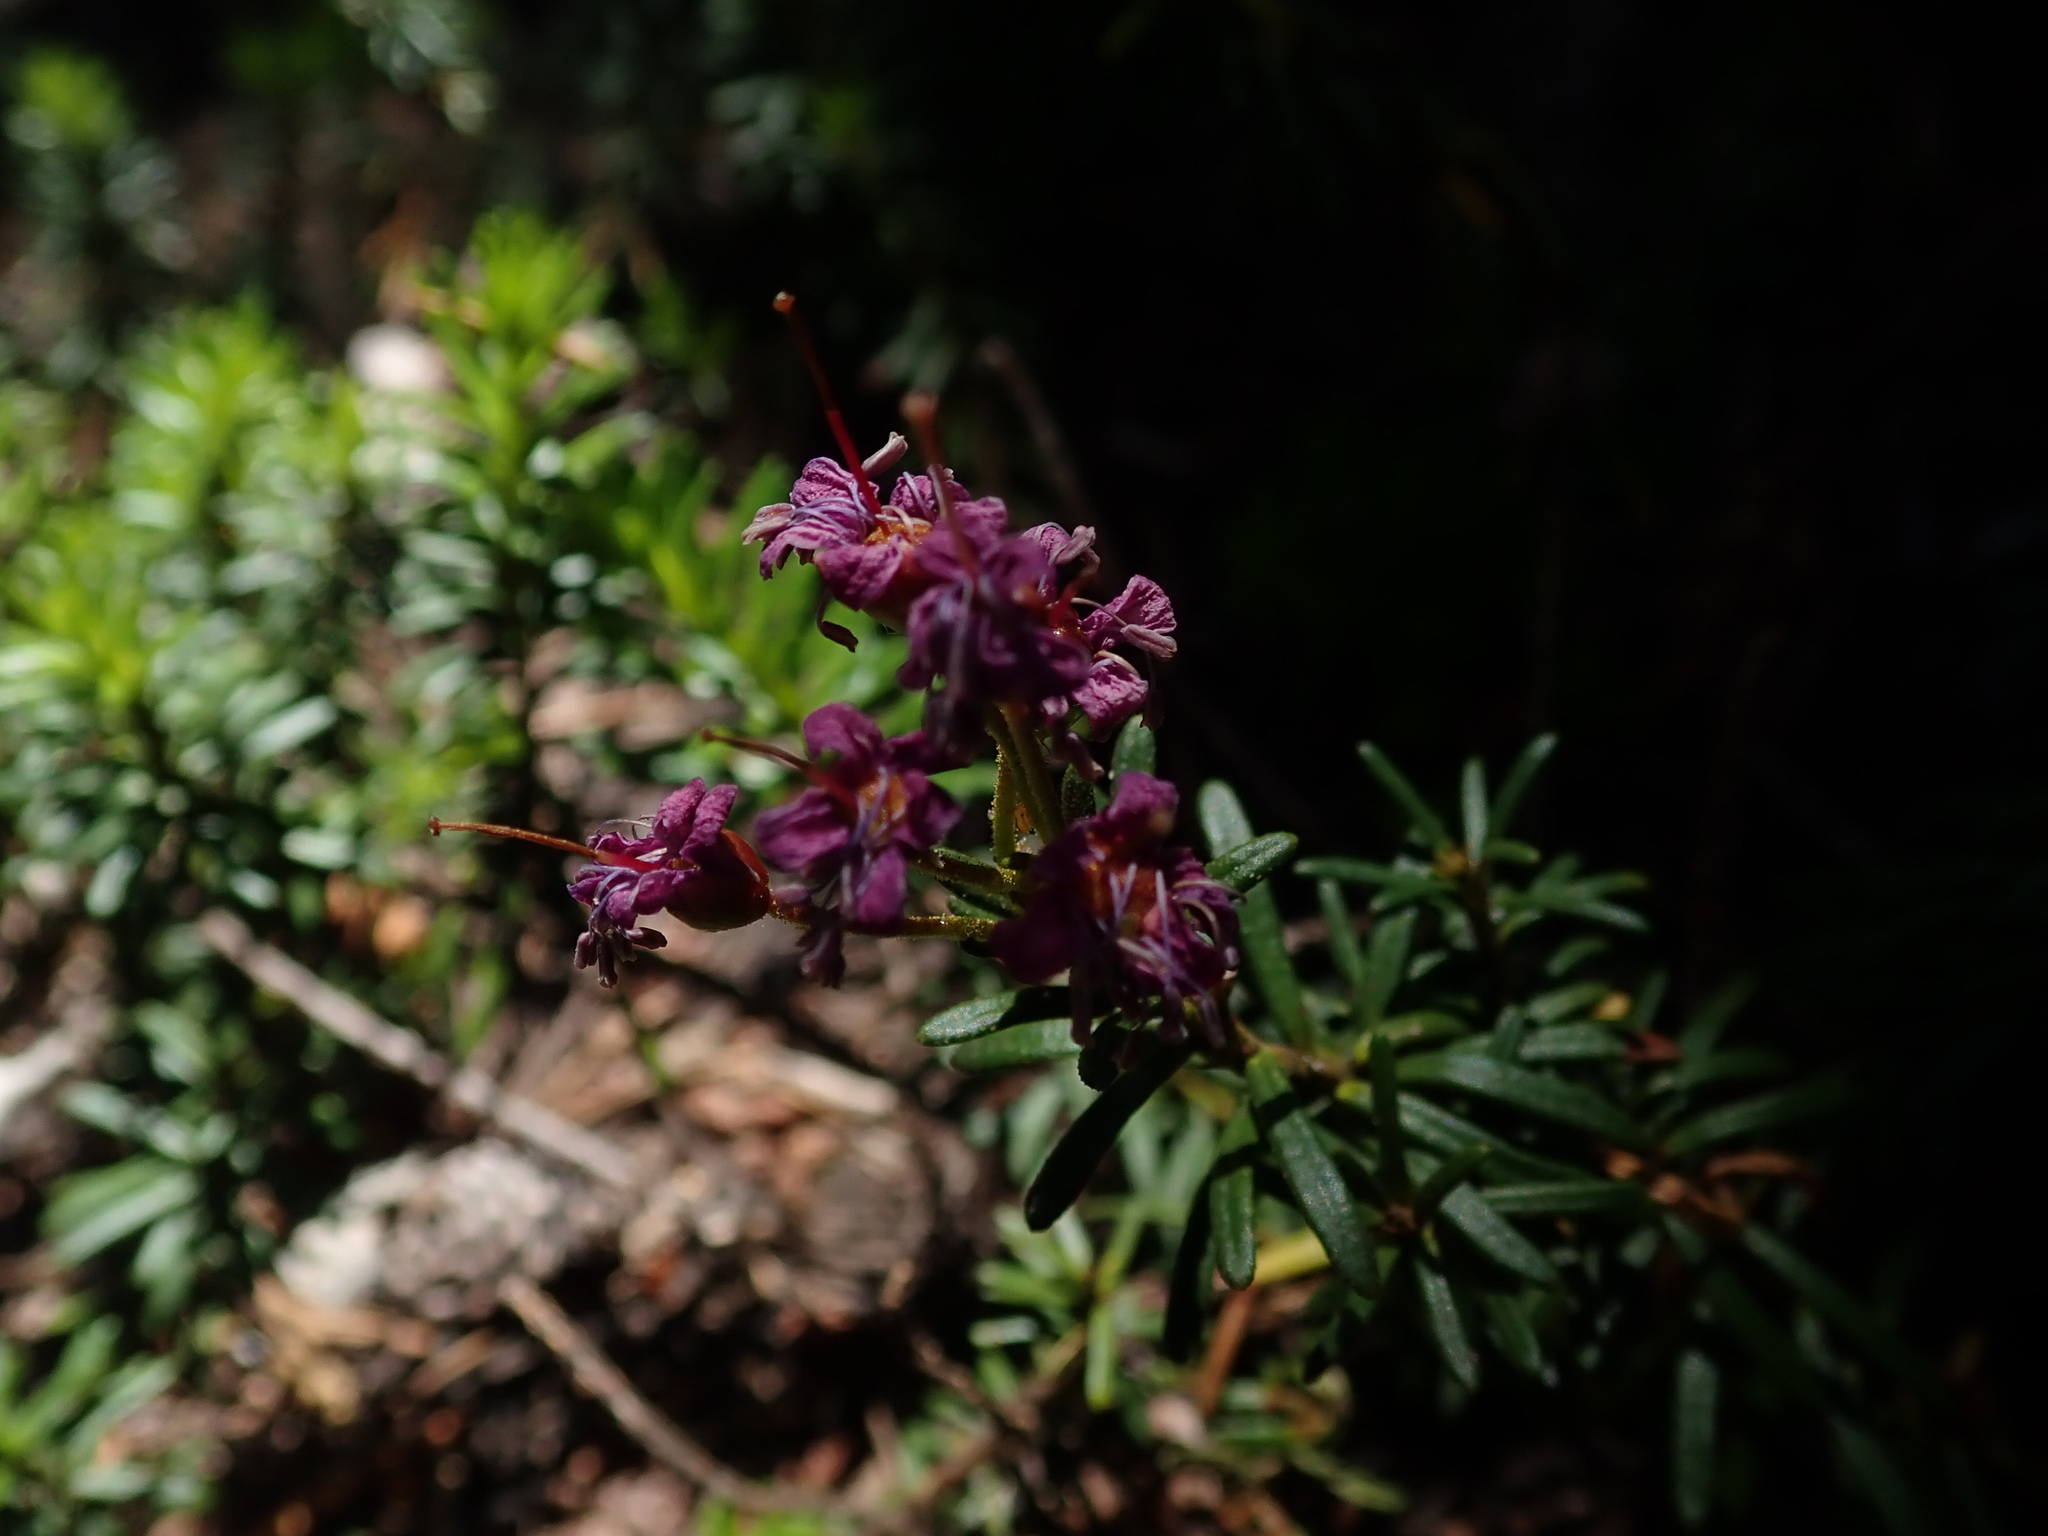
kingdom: Plantae
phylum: Tracheophyta
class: Magnoliopsida
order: Ericales
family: Ericaceae
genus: Phyllodoce
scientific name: Phyllodoce breweri
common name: Brewer's mountain-heather
